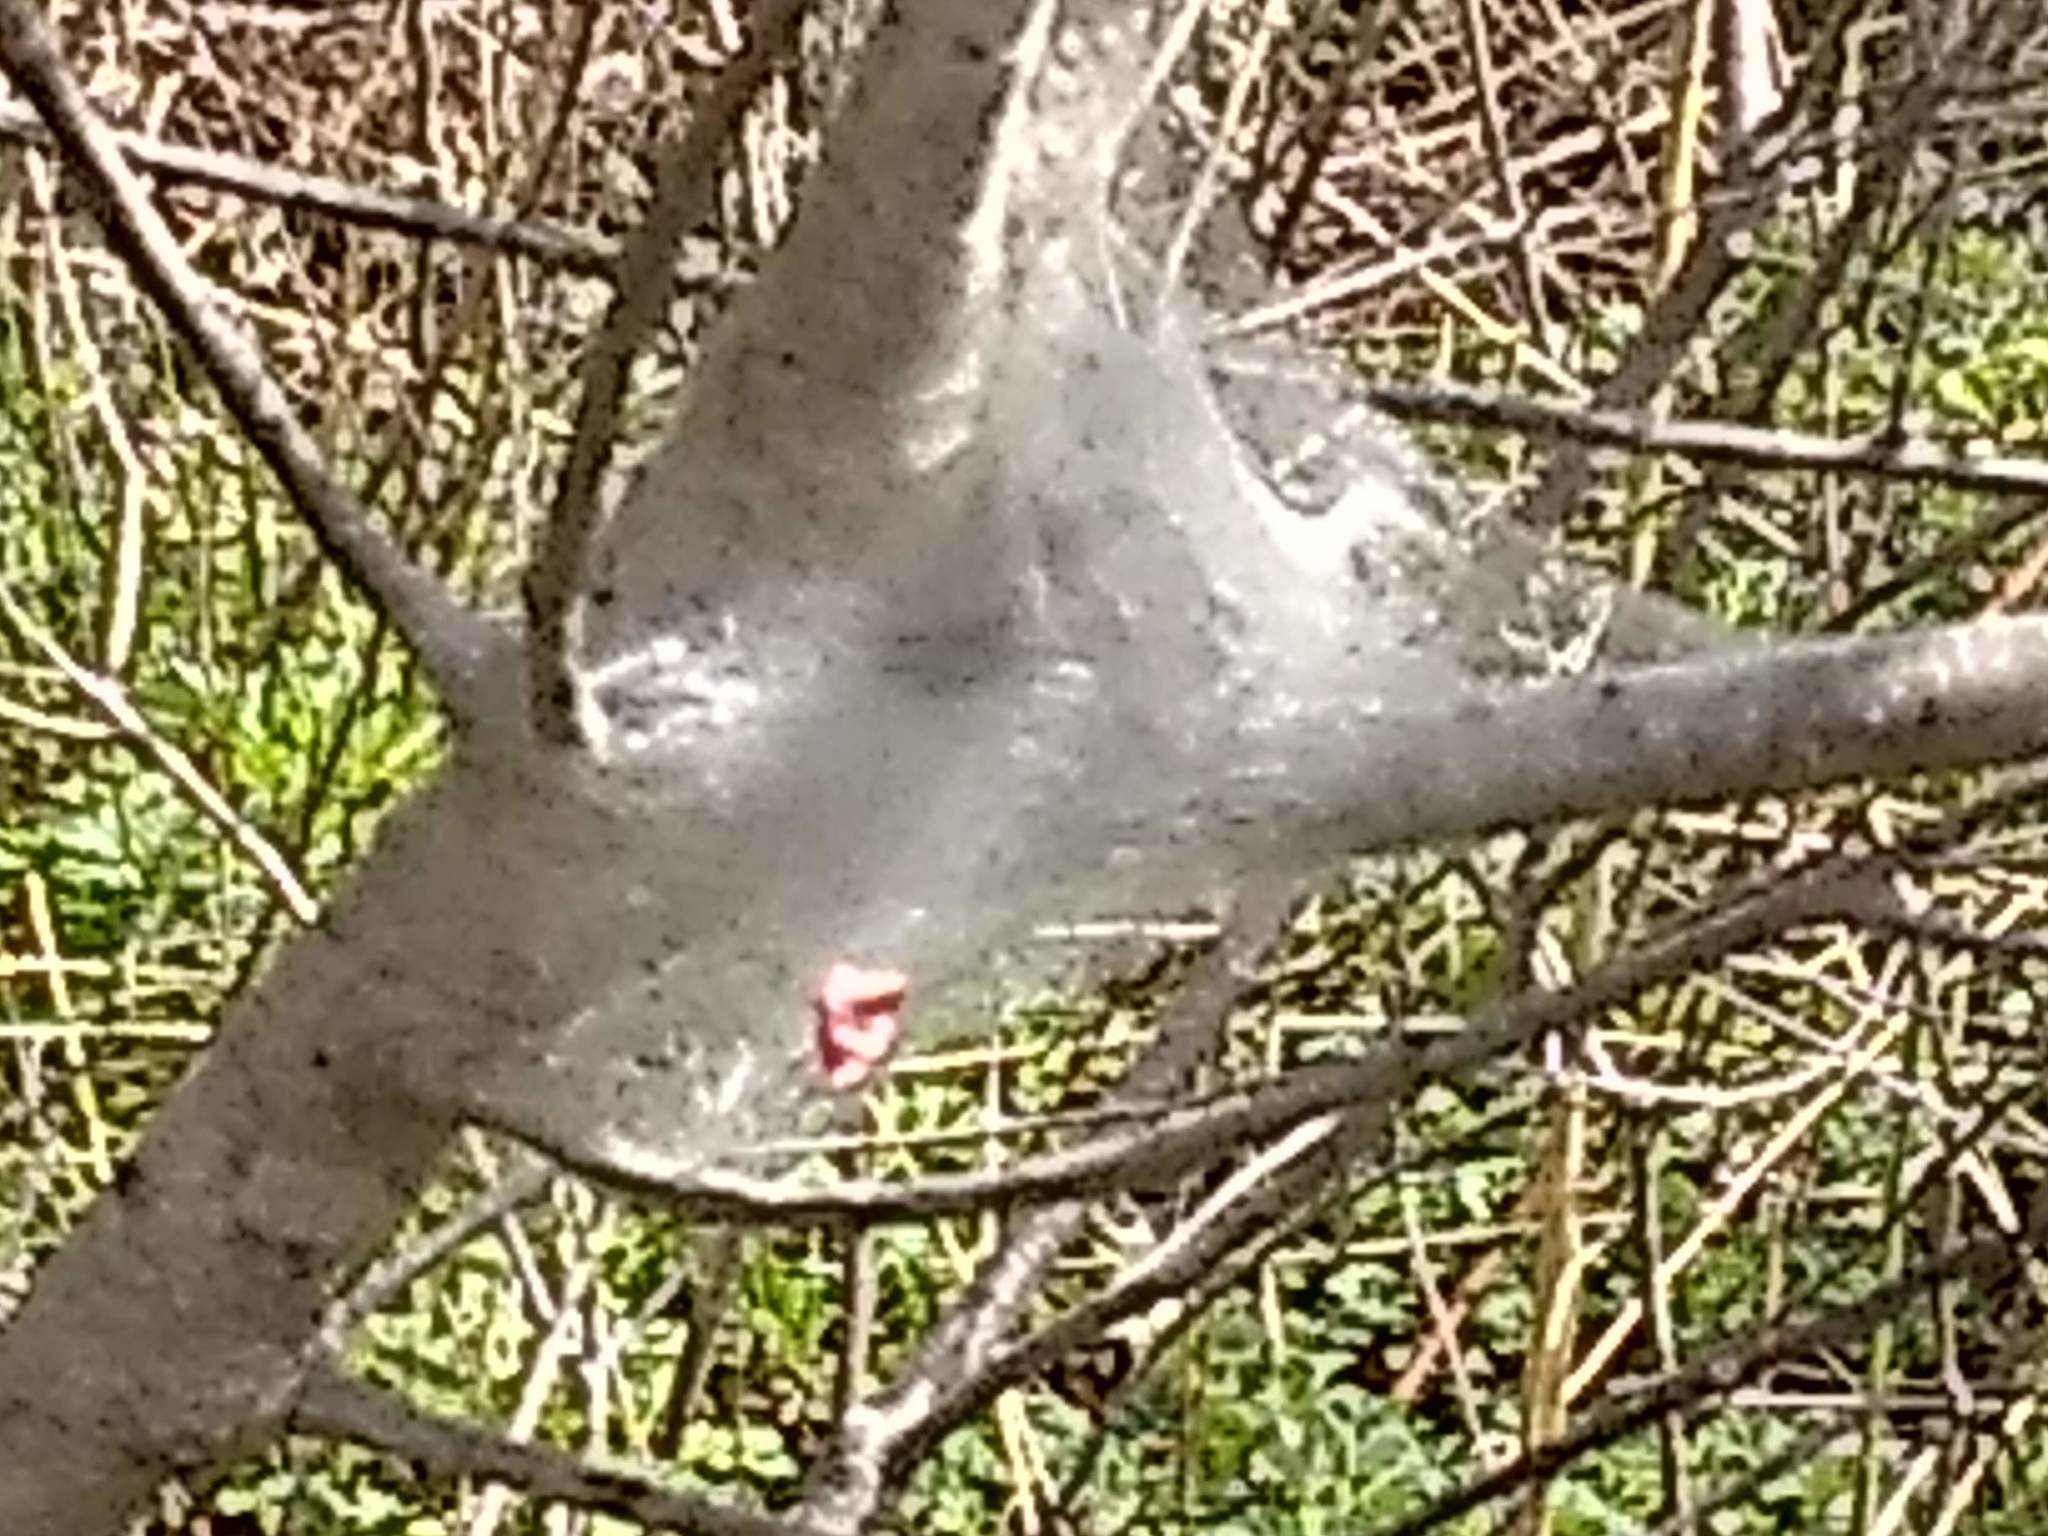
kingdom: Animalia
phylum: Arthropoda
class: Insecta
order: Lepidoptera
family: Lasiocampidae
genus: Malacosoma
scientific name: Malacosoma americana
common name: Eastern tent caterpillar moth
